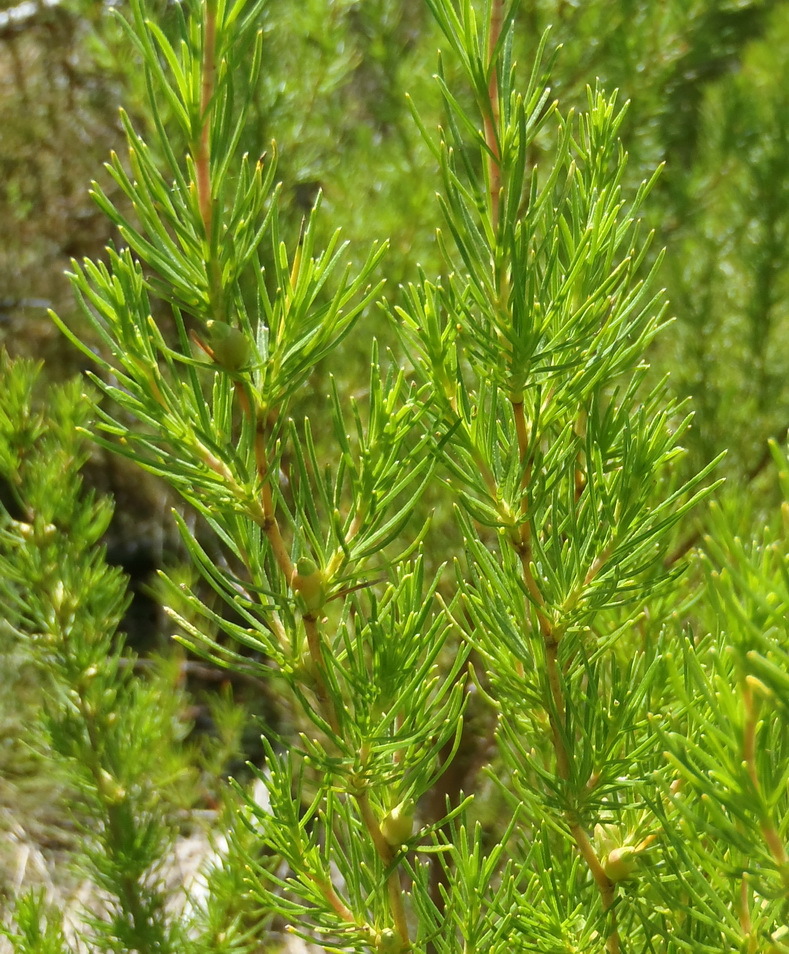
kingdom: Plantae
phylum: Tracheophyta
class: Magnoliopsida
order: Rosales
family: Rosaceae
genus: Cliffortia
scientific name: Cliffortia burchellii
